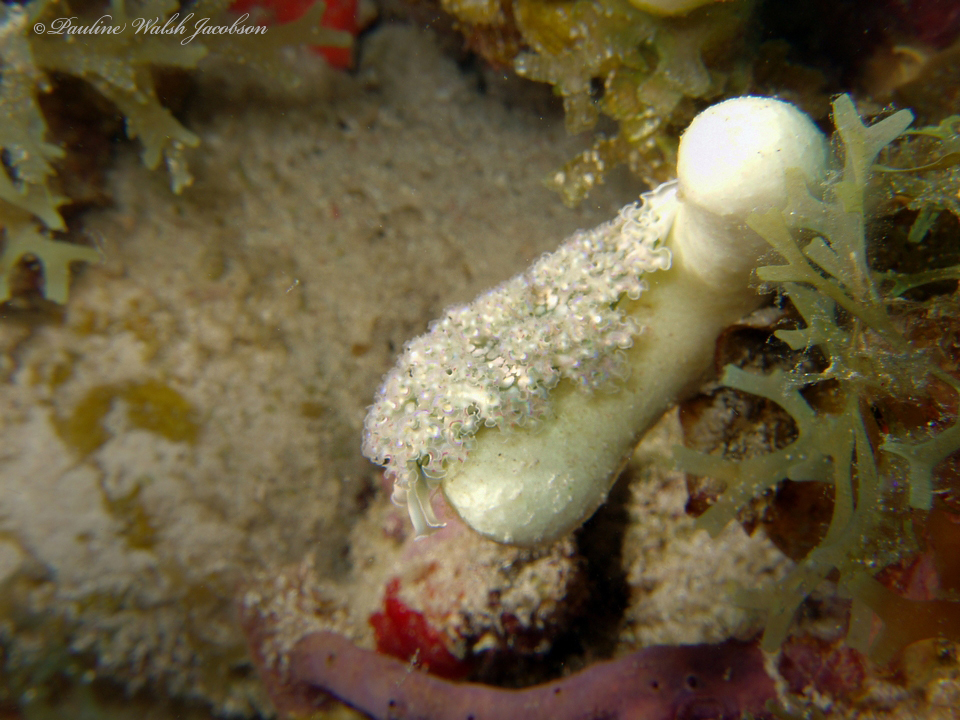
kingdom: Animalia
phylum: Mollusca
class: Gastropoda
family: Plakobranchidae
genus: Elysia
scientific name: Elysia crispata
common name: Lettuce slug
